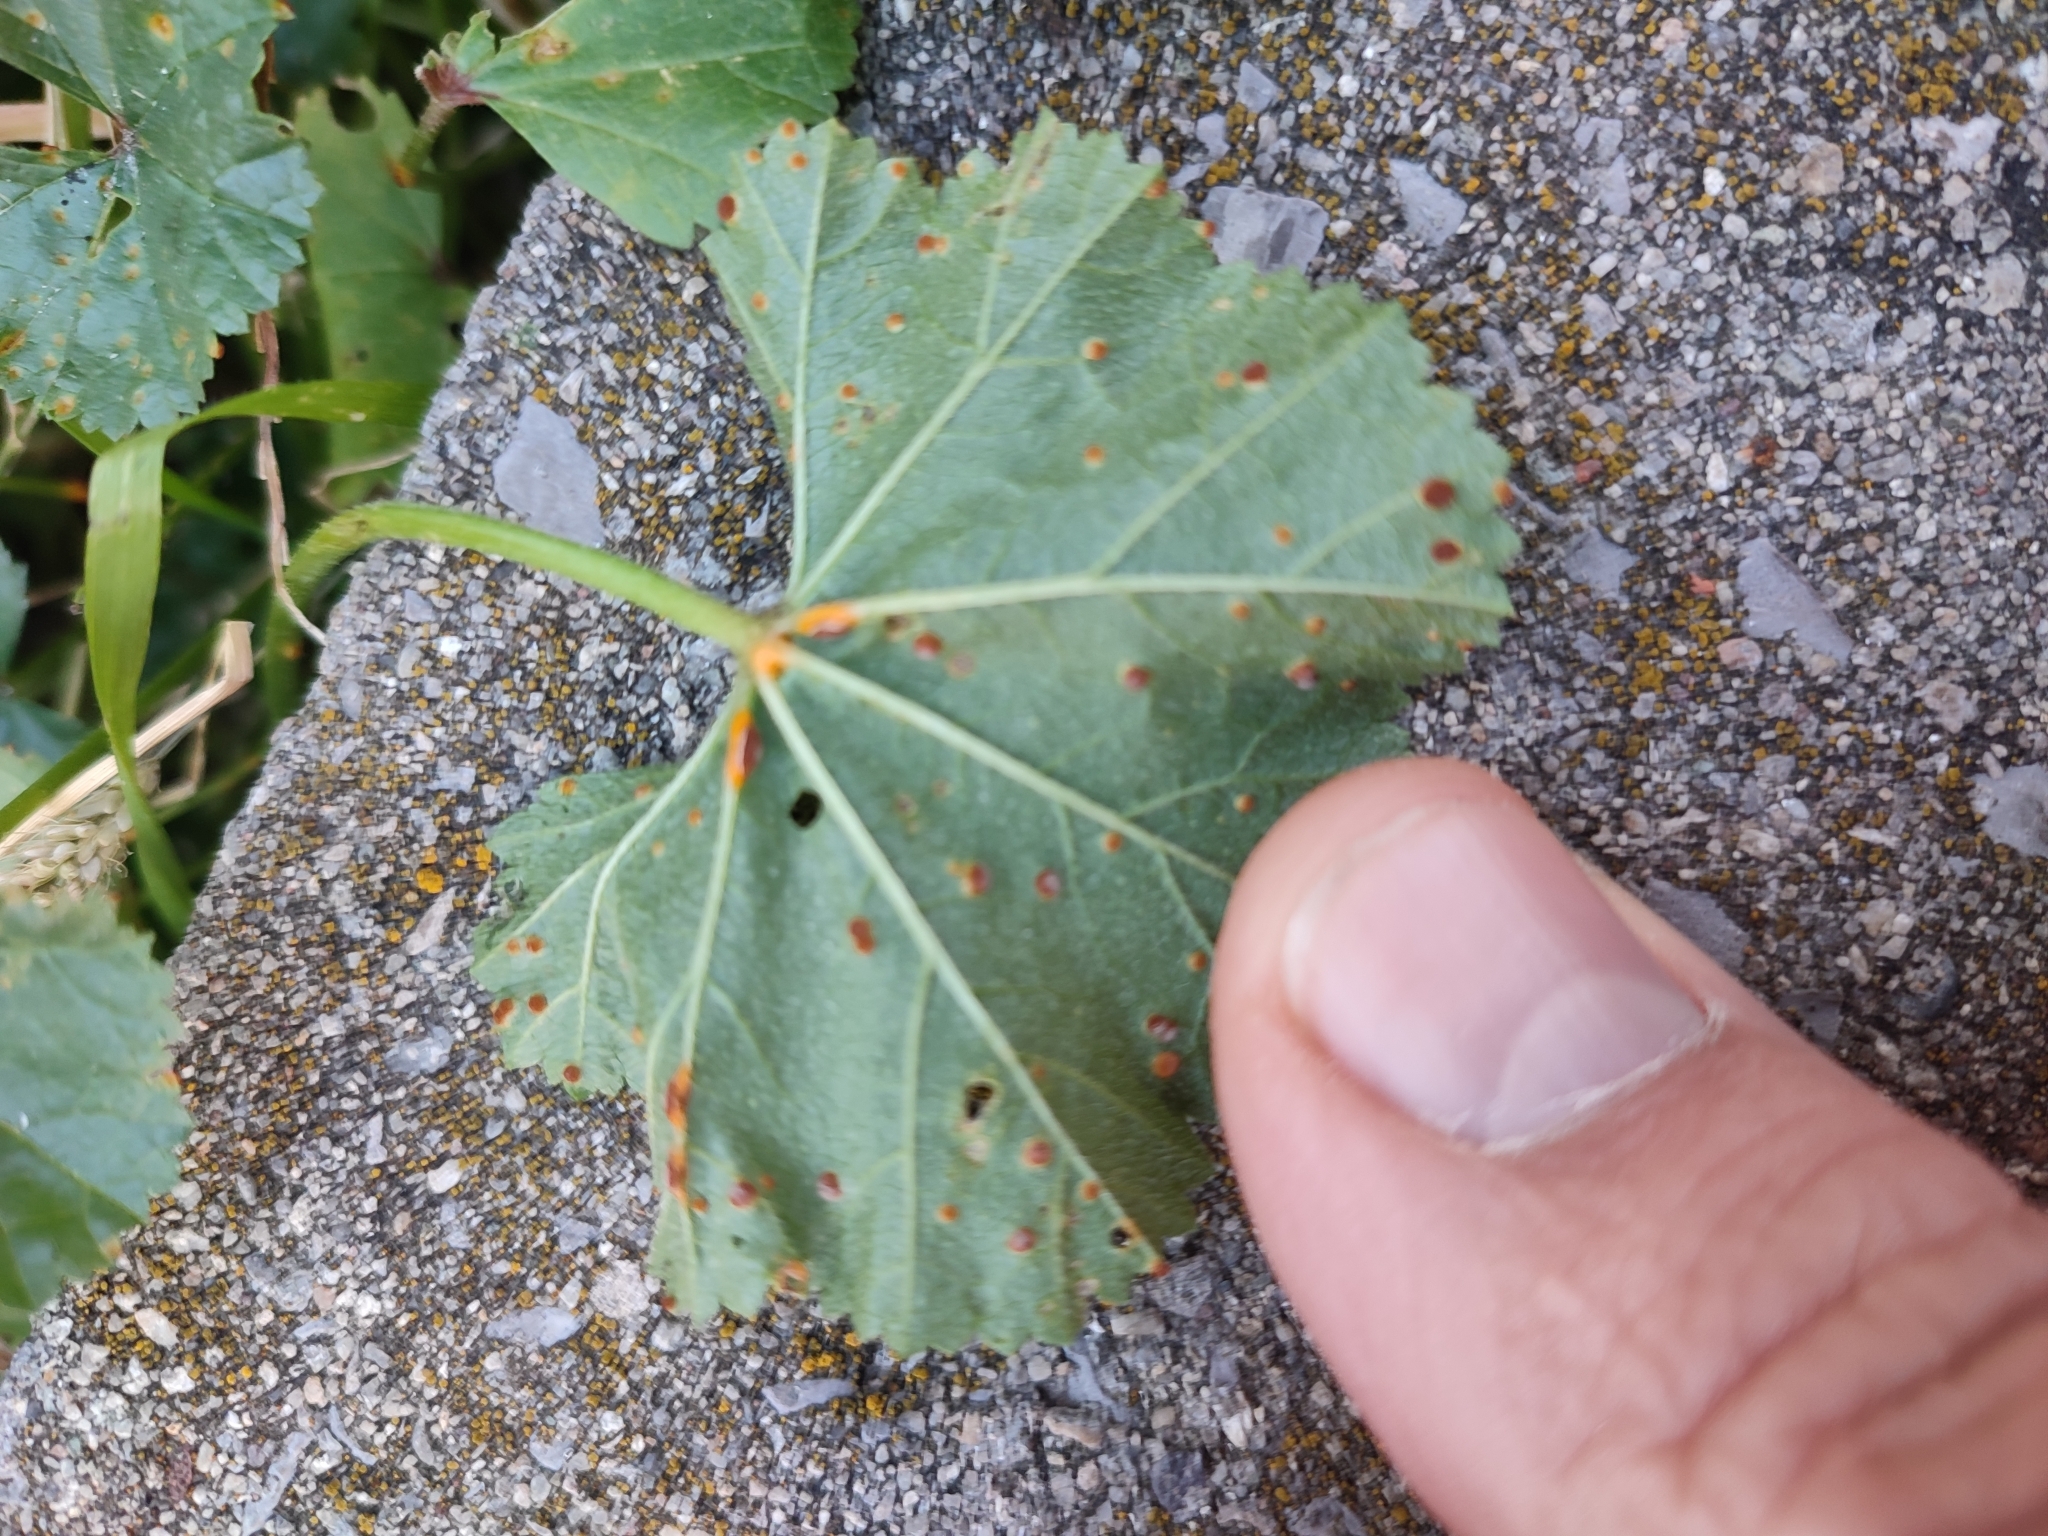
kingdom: Fungi
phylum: Basidiomycota
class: Pucciniomycetes
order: Pucciniales
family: Pucciniaceae
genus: Puccinia
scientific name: Puccinia malvacearum
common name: Hollyhock rust
